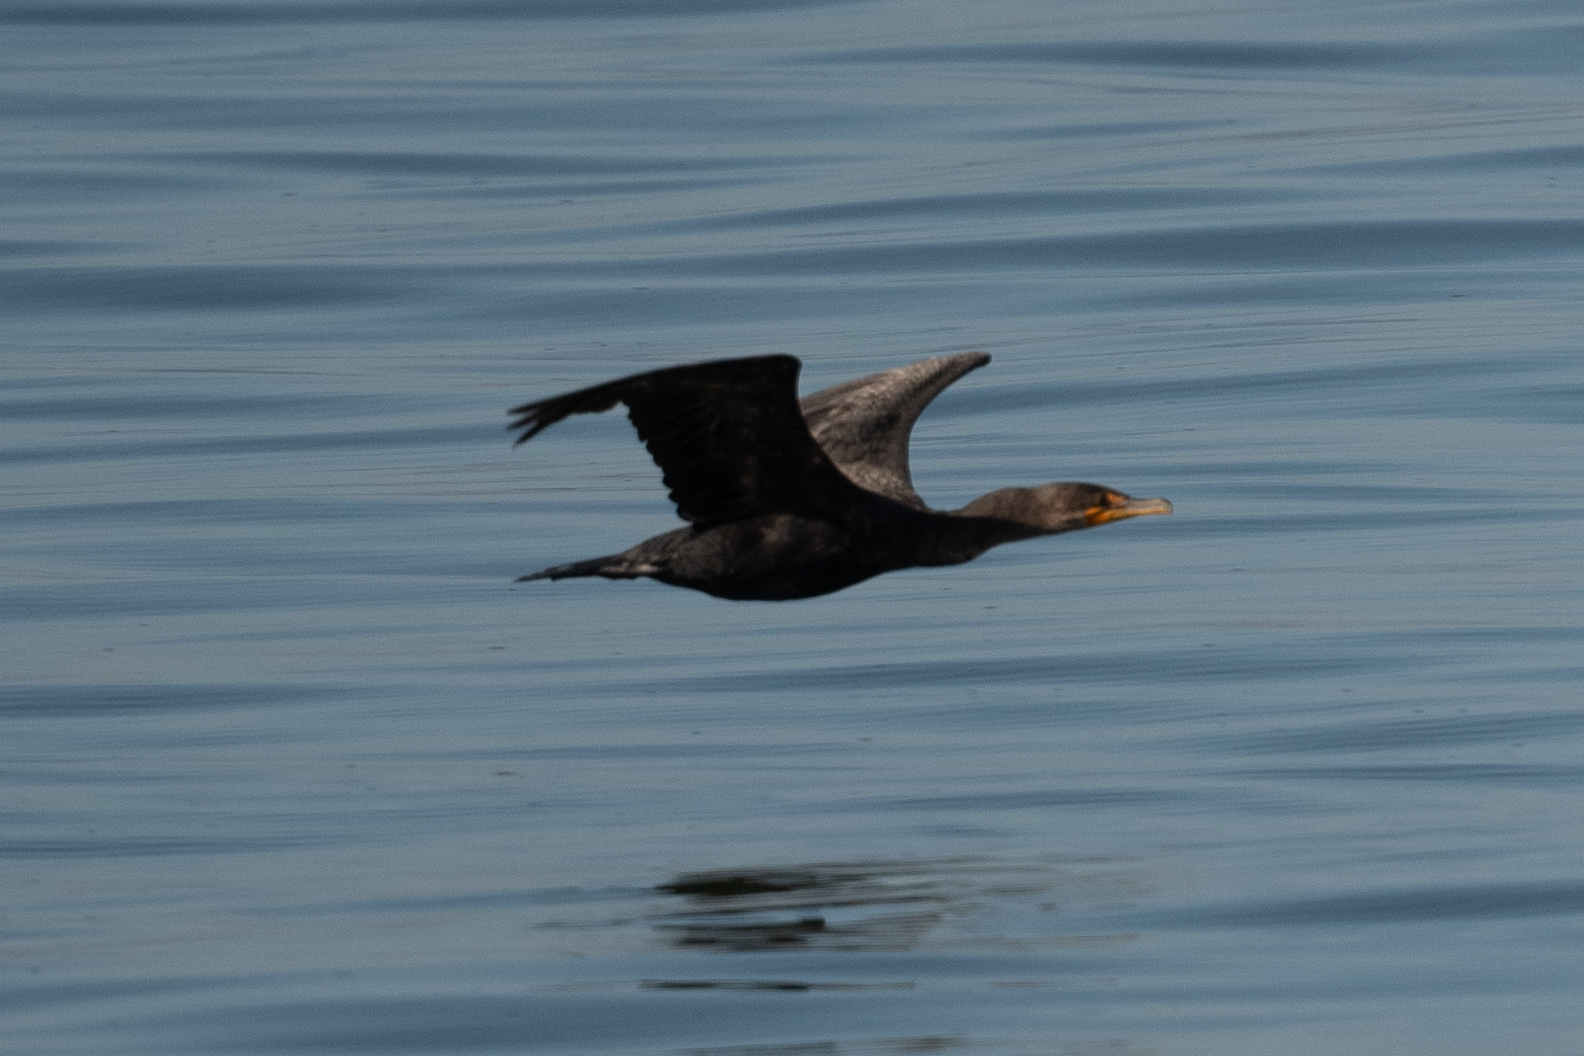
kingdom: Animalia
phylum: Chordata
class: Aves
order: Suliformes
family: Phalacrocoracidae
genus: Phalacrocorax
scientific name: Phalacrocorax auritus
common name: Double-crested cormorant
